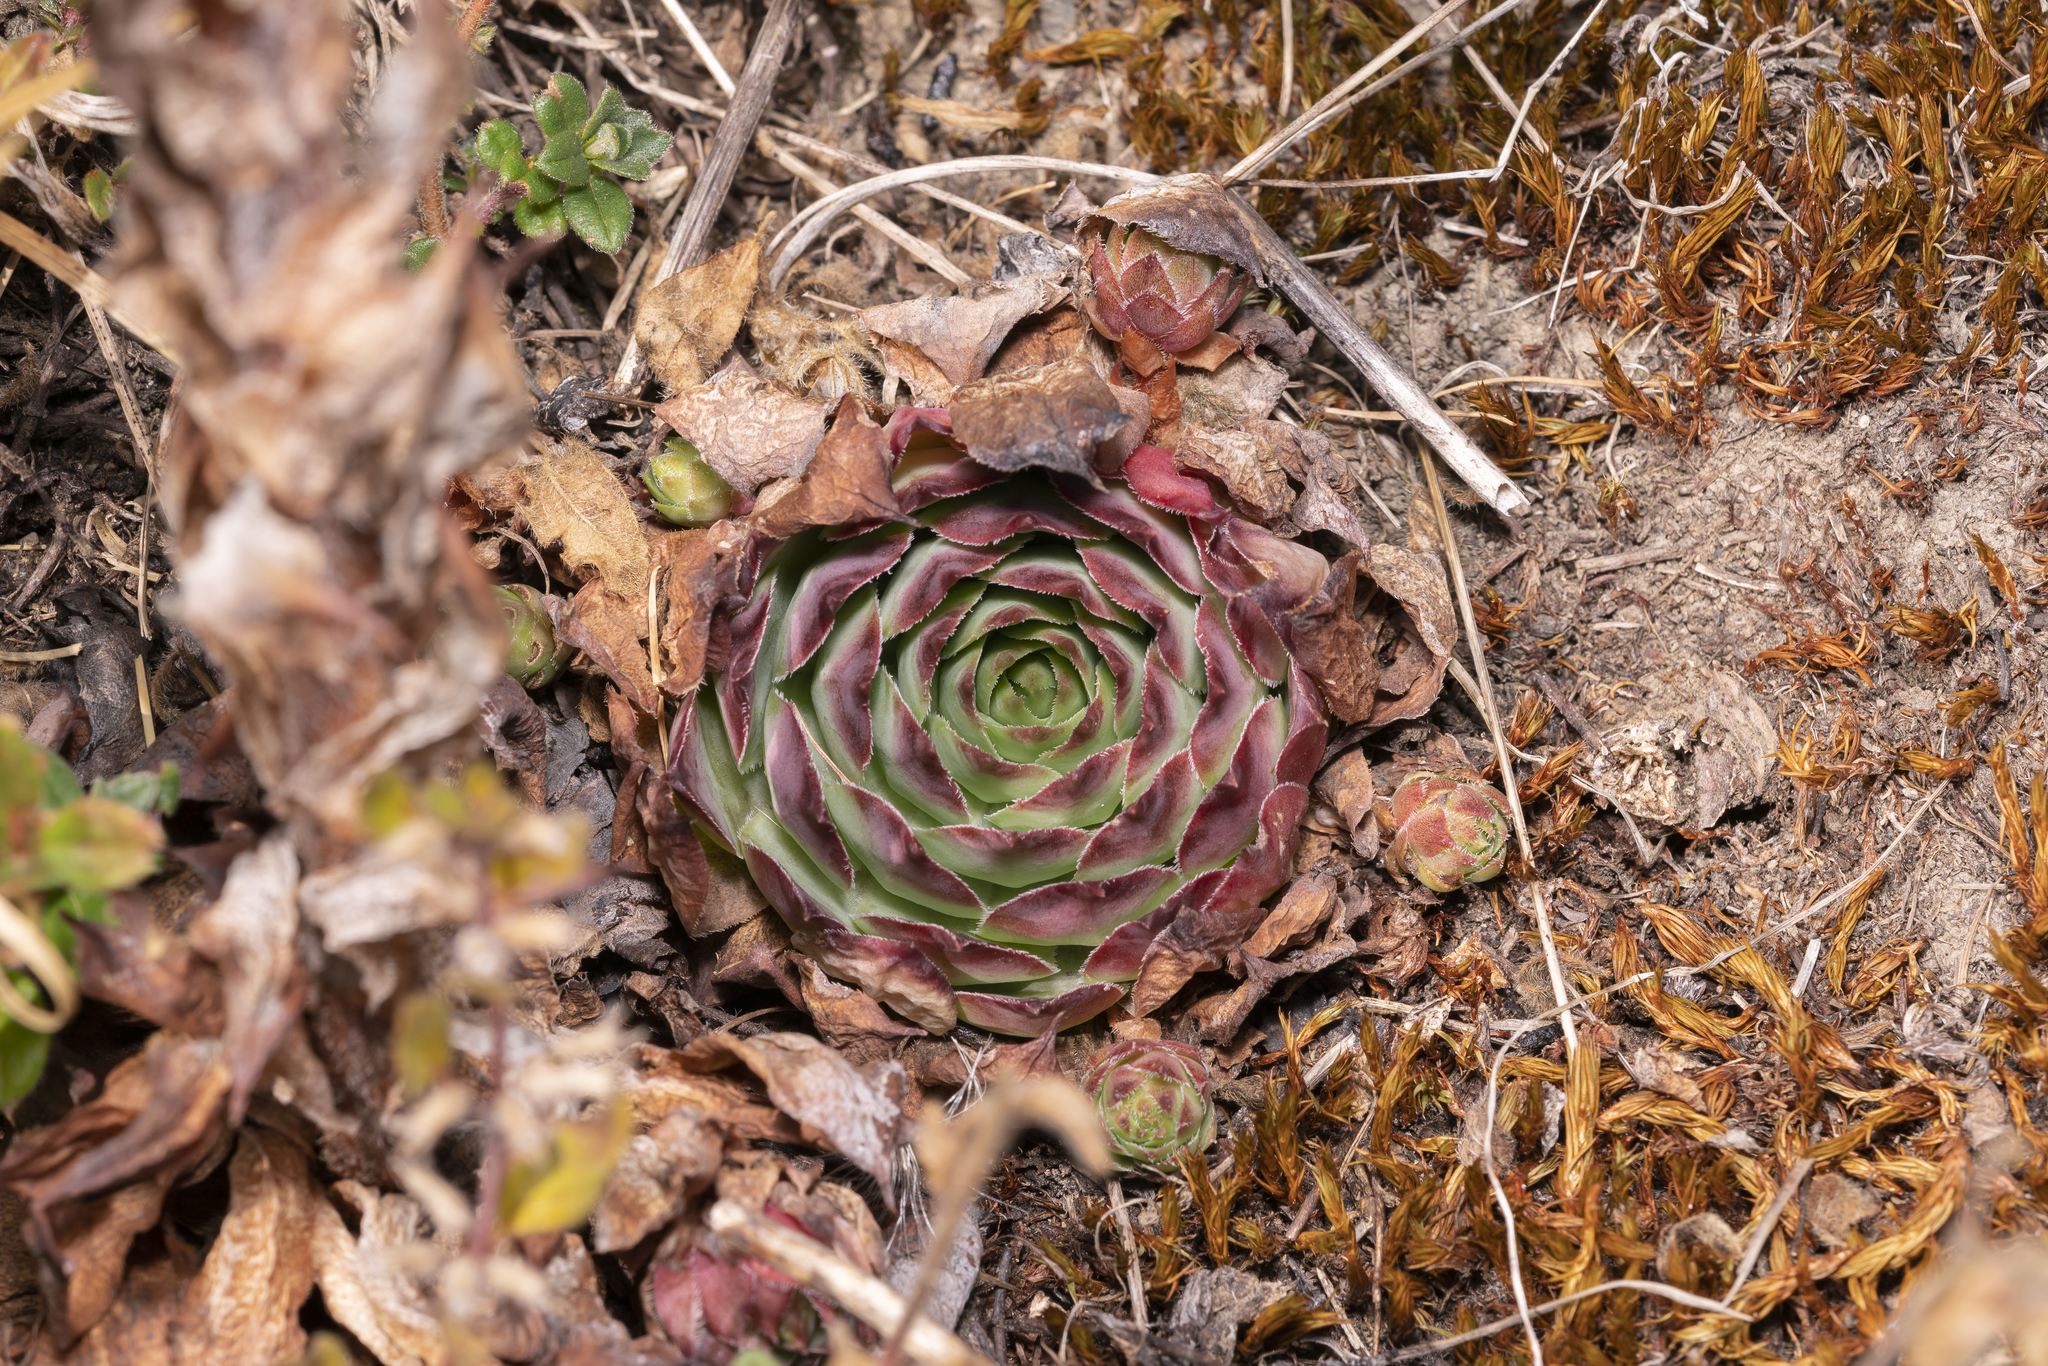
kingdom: Plantae
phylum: Tracheophyta
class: Magnoliopsida
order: Saxifragales
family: Crassulaceae
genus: Sempervivum
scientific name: Sempervivum tectorum
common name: House-leek
